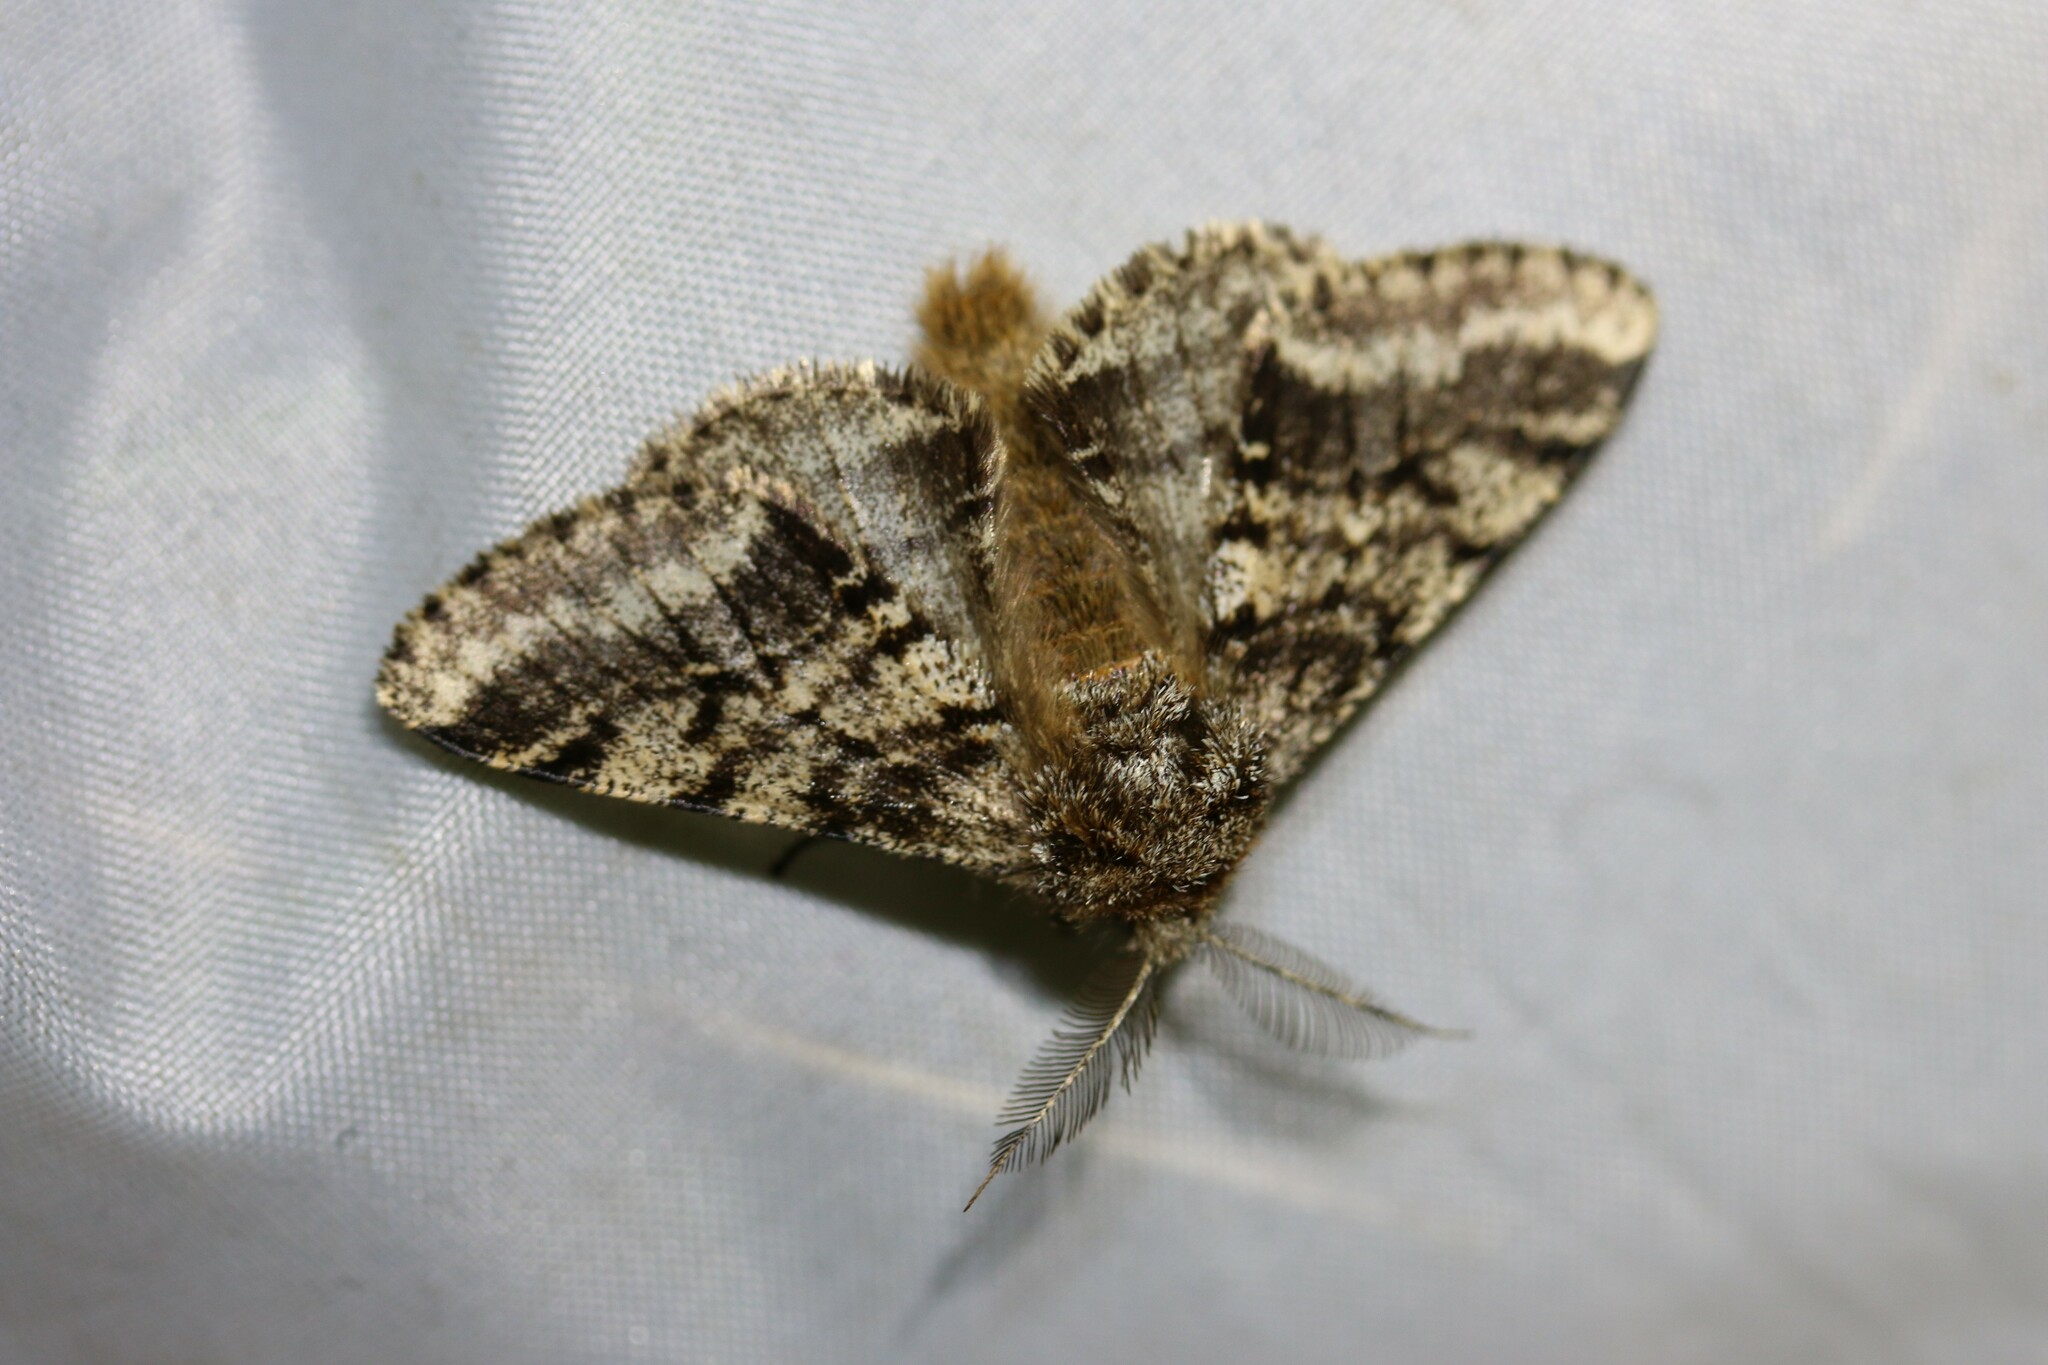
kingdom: Animalia
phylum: Arthropoda
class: Insecta
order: Lepidoptera
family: Geometridae
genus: Lycia
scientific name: Lycia hirtaria
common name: Brindled beauty
